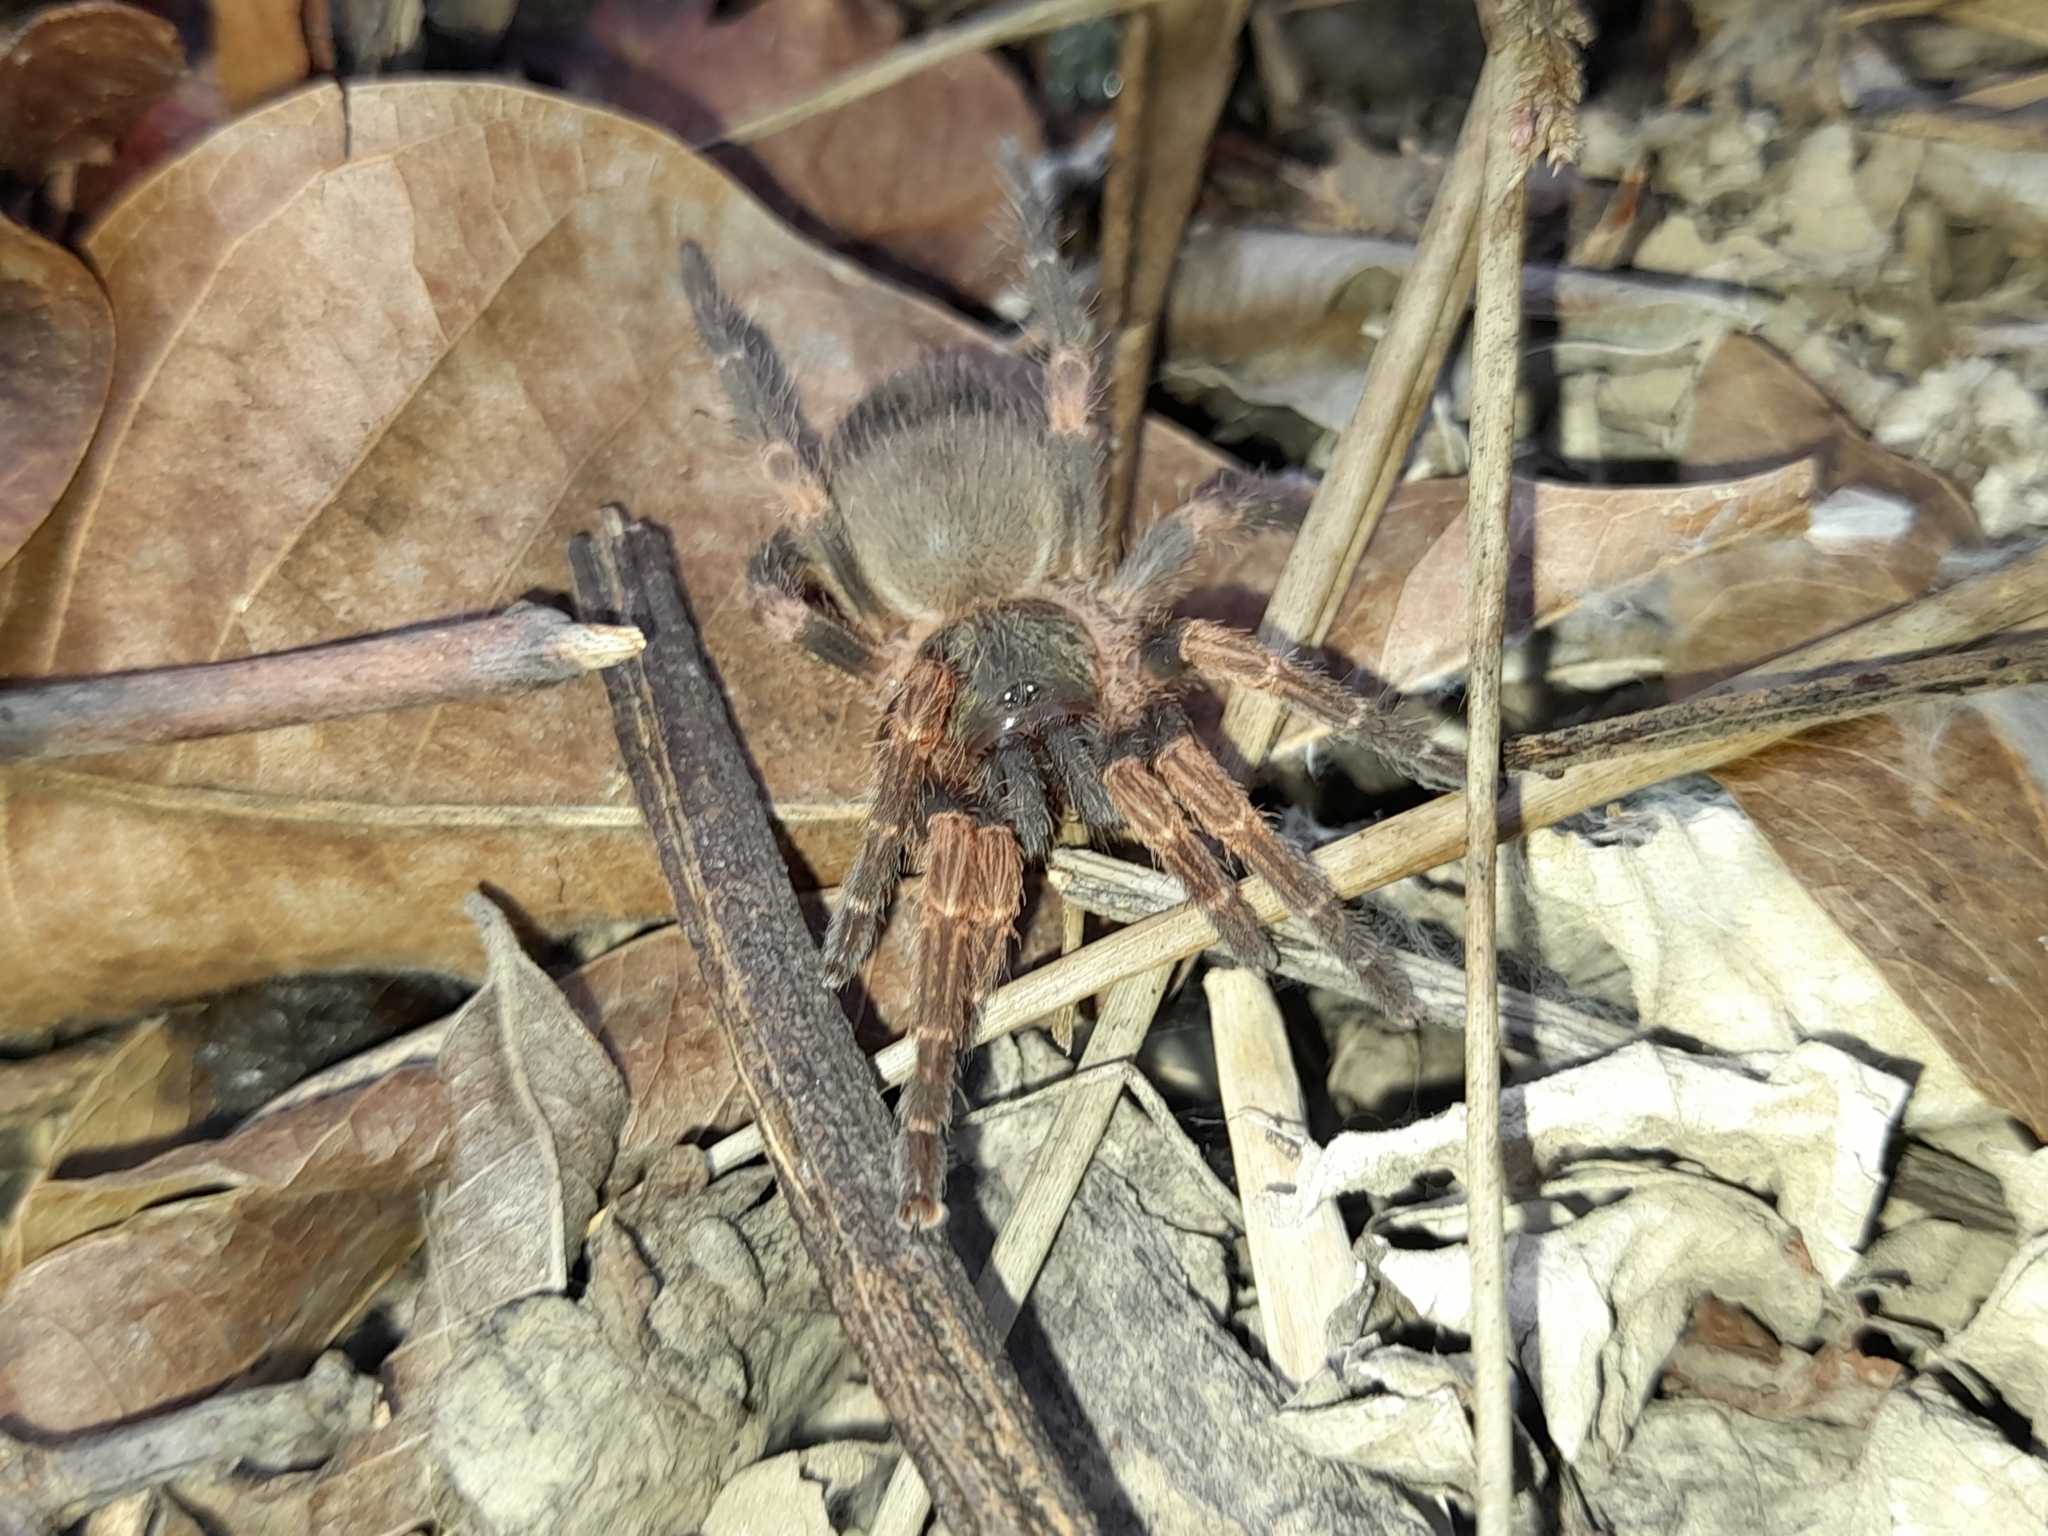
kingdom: Animalia
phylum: Arthropoda
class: Arachnida
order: Araneae
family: Theraphosidae
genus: Neischnocolus
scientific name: Neischnocolus panamanus
